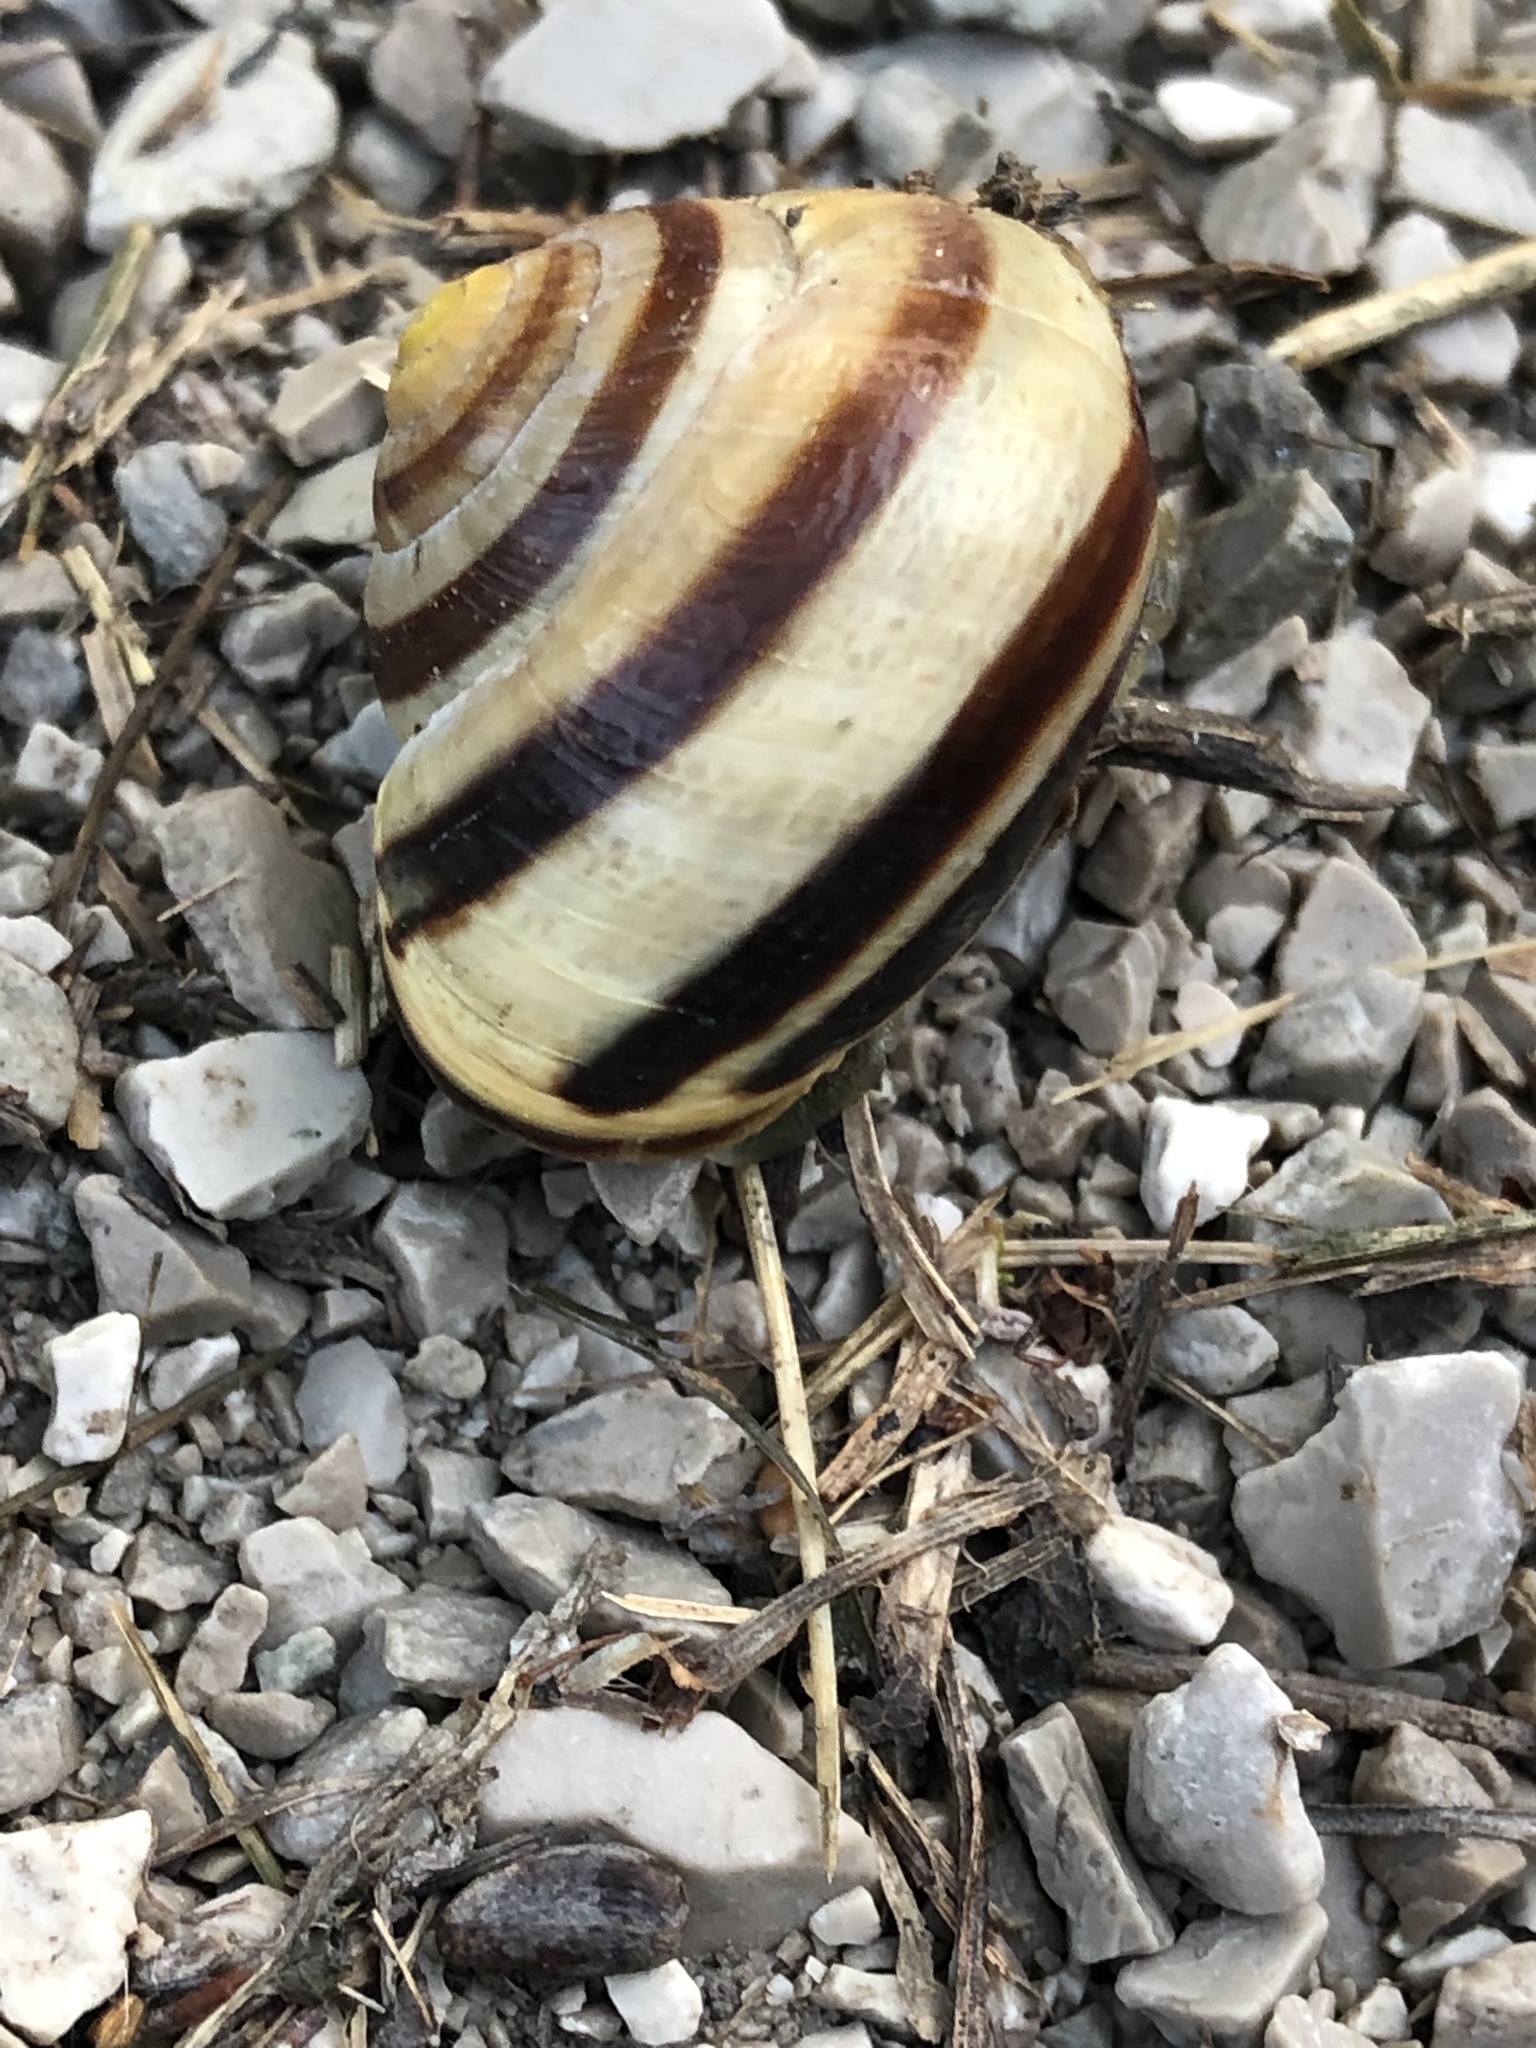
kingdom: Animalia
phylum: Mollusca
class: Gastropoda
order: Stylommatophora
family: Helicidae
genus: Cepaea
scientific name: Cepaea nemoralis
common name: Grovesnail
